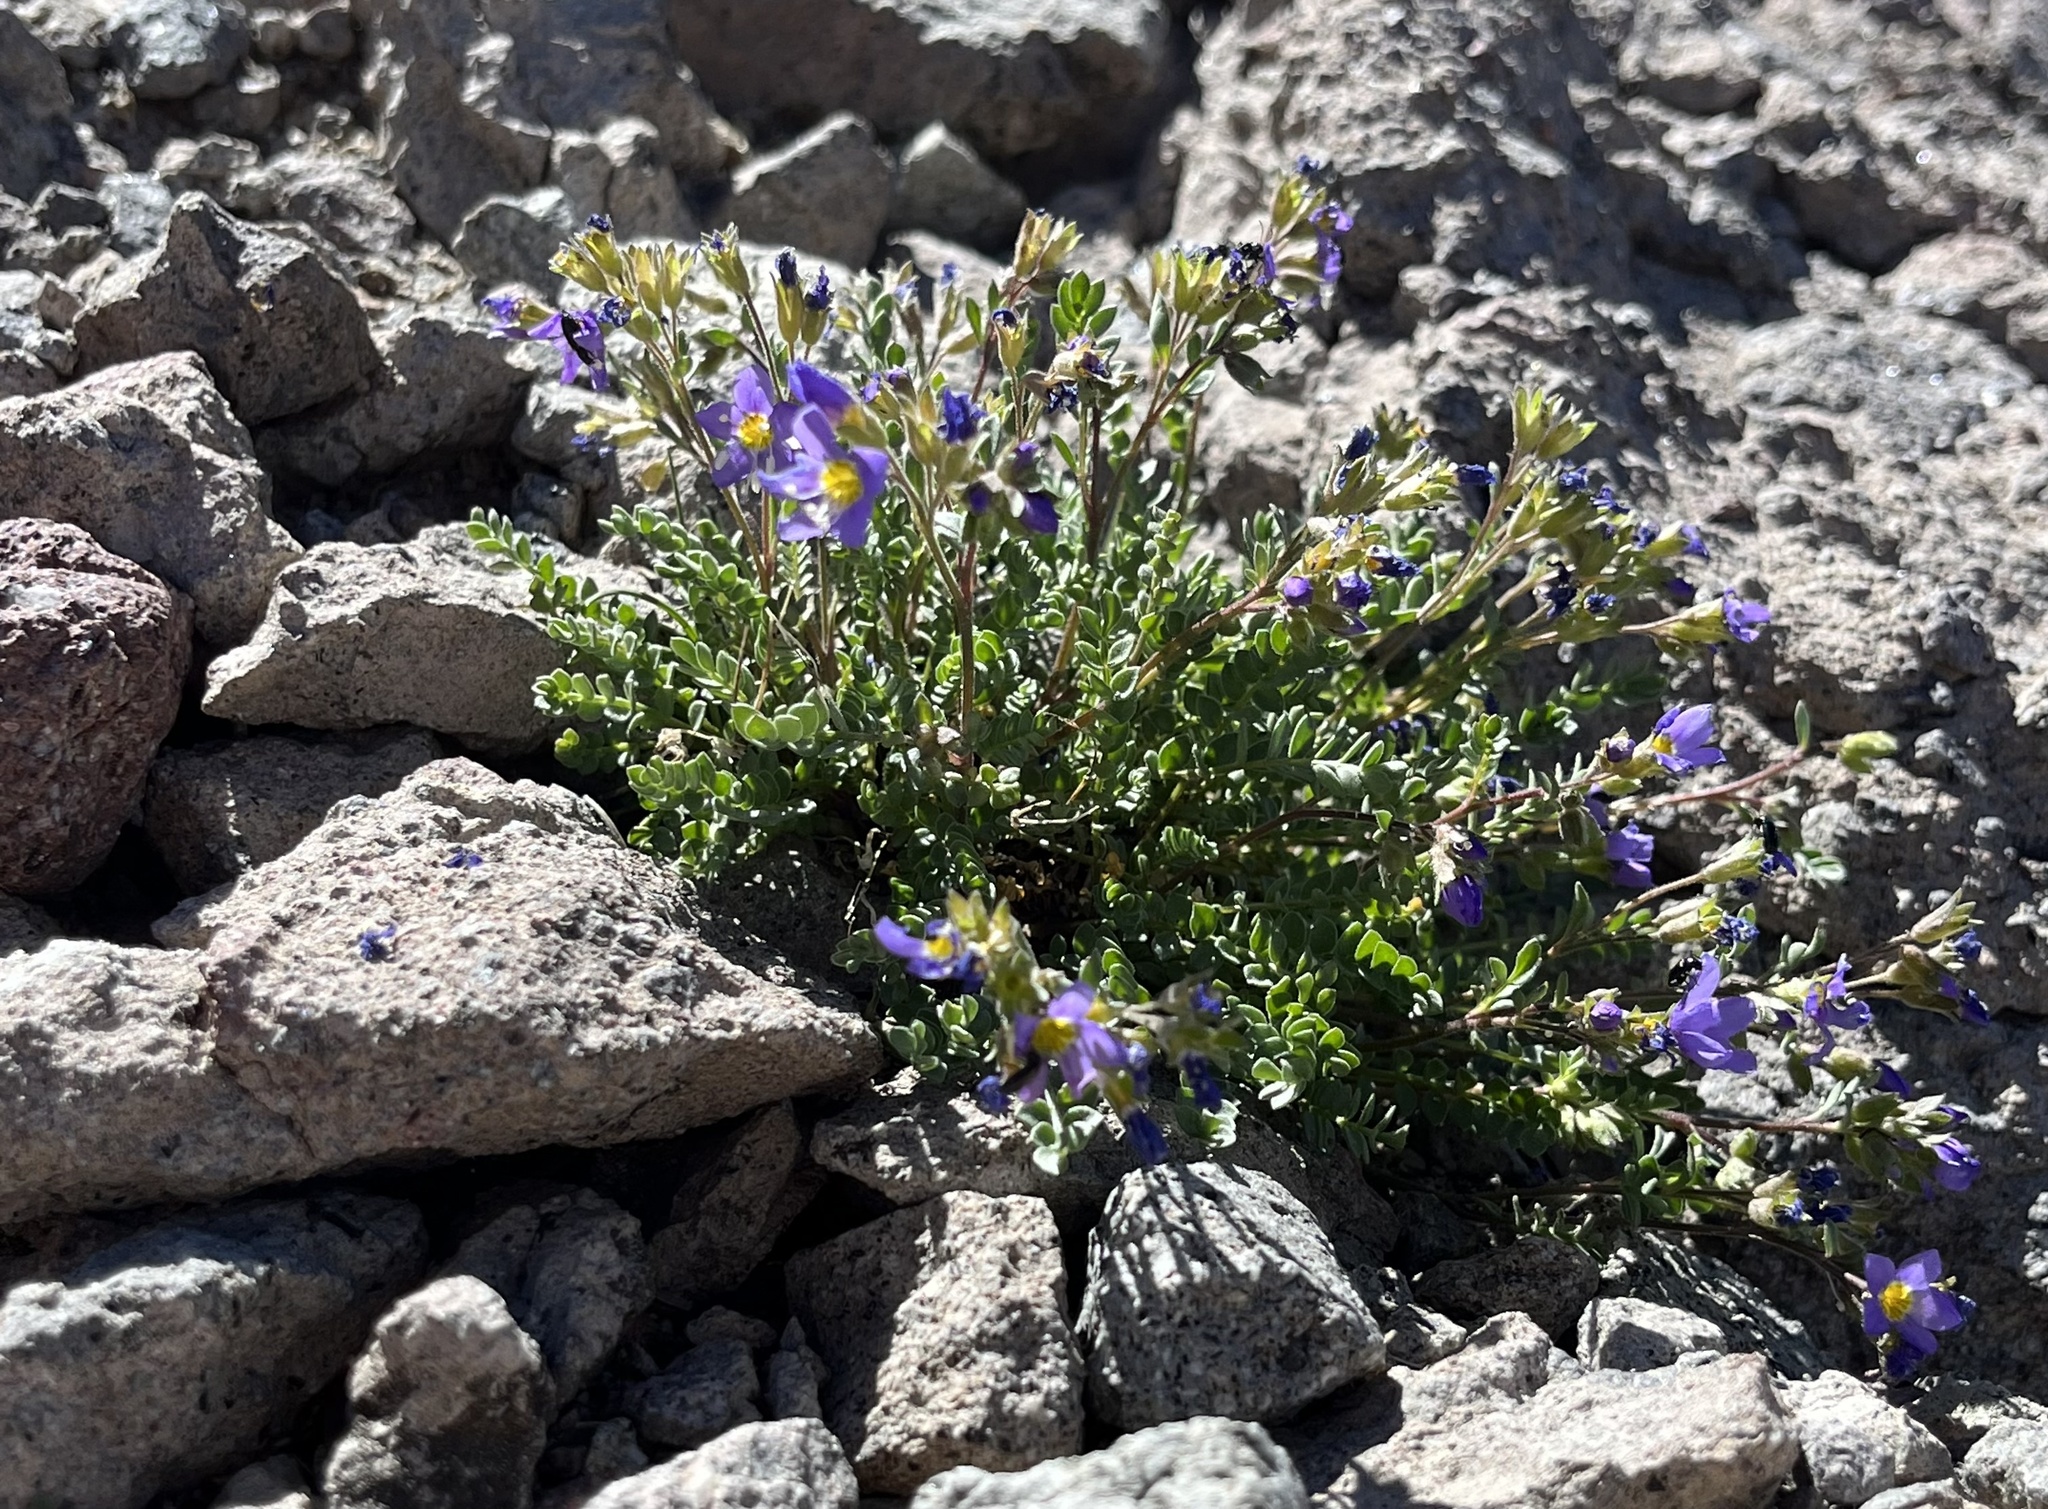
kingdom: Plantae
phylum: Tracheophyta
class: Magnoliopsida
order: Ericales
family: Polemoniaceae
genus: Polemonium
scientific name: Polemonium pulcherrimum
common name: Short jacob's-ladder
